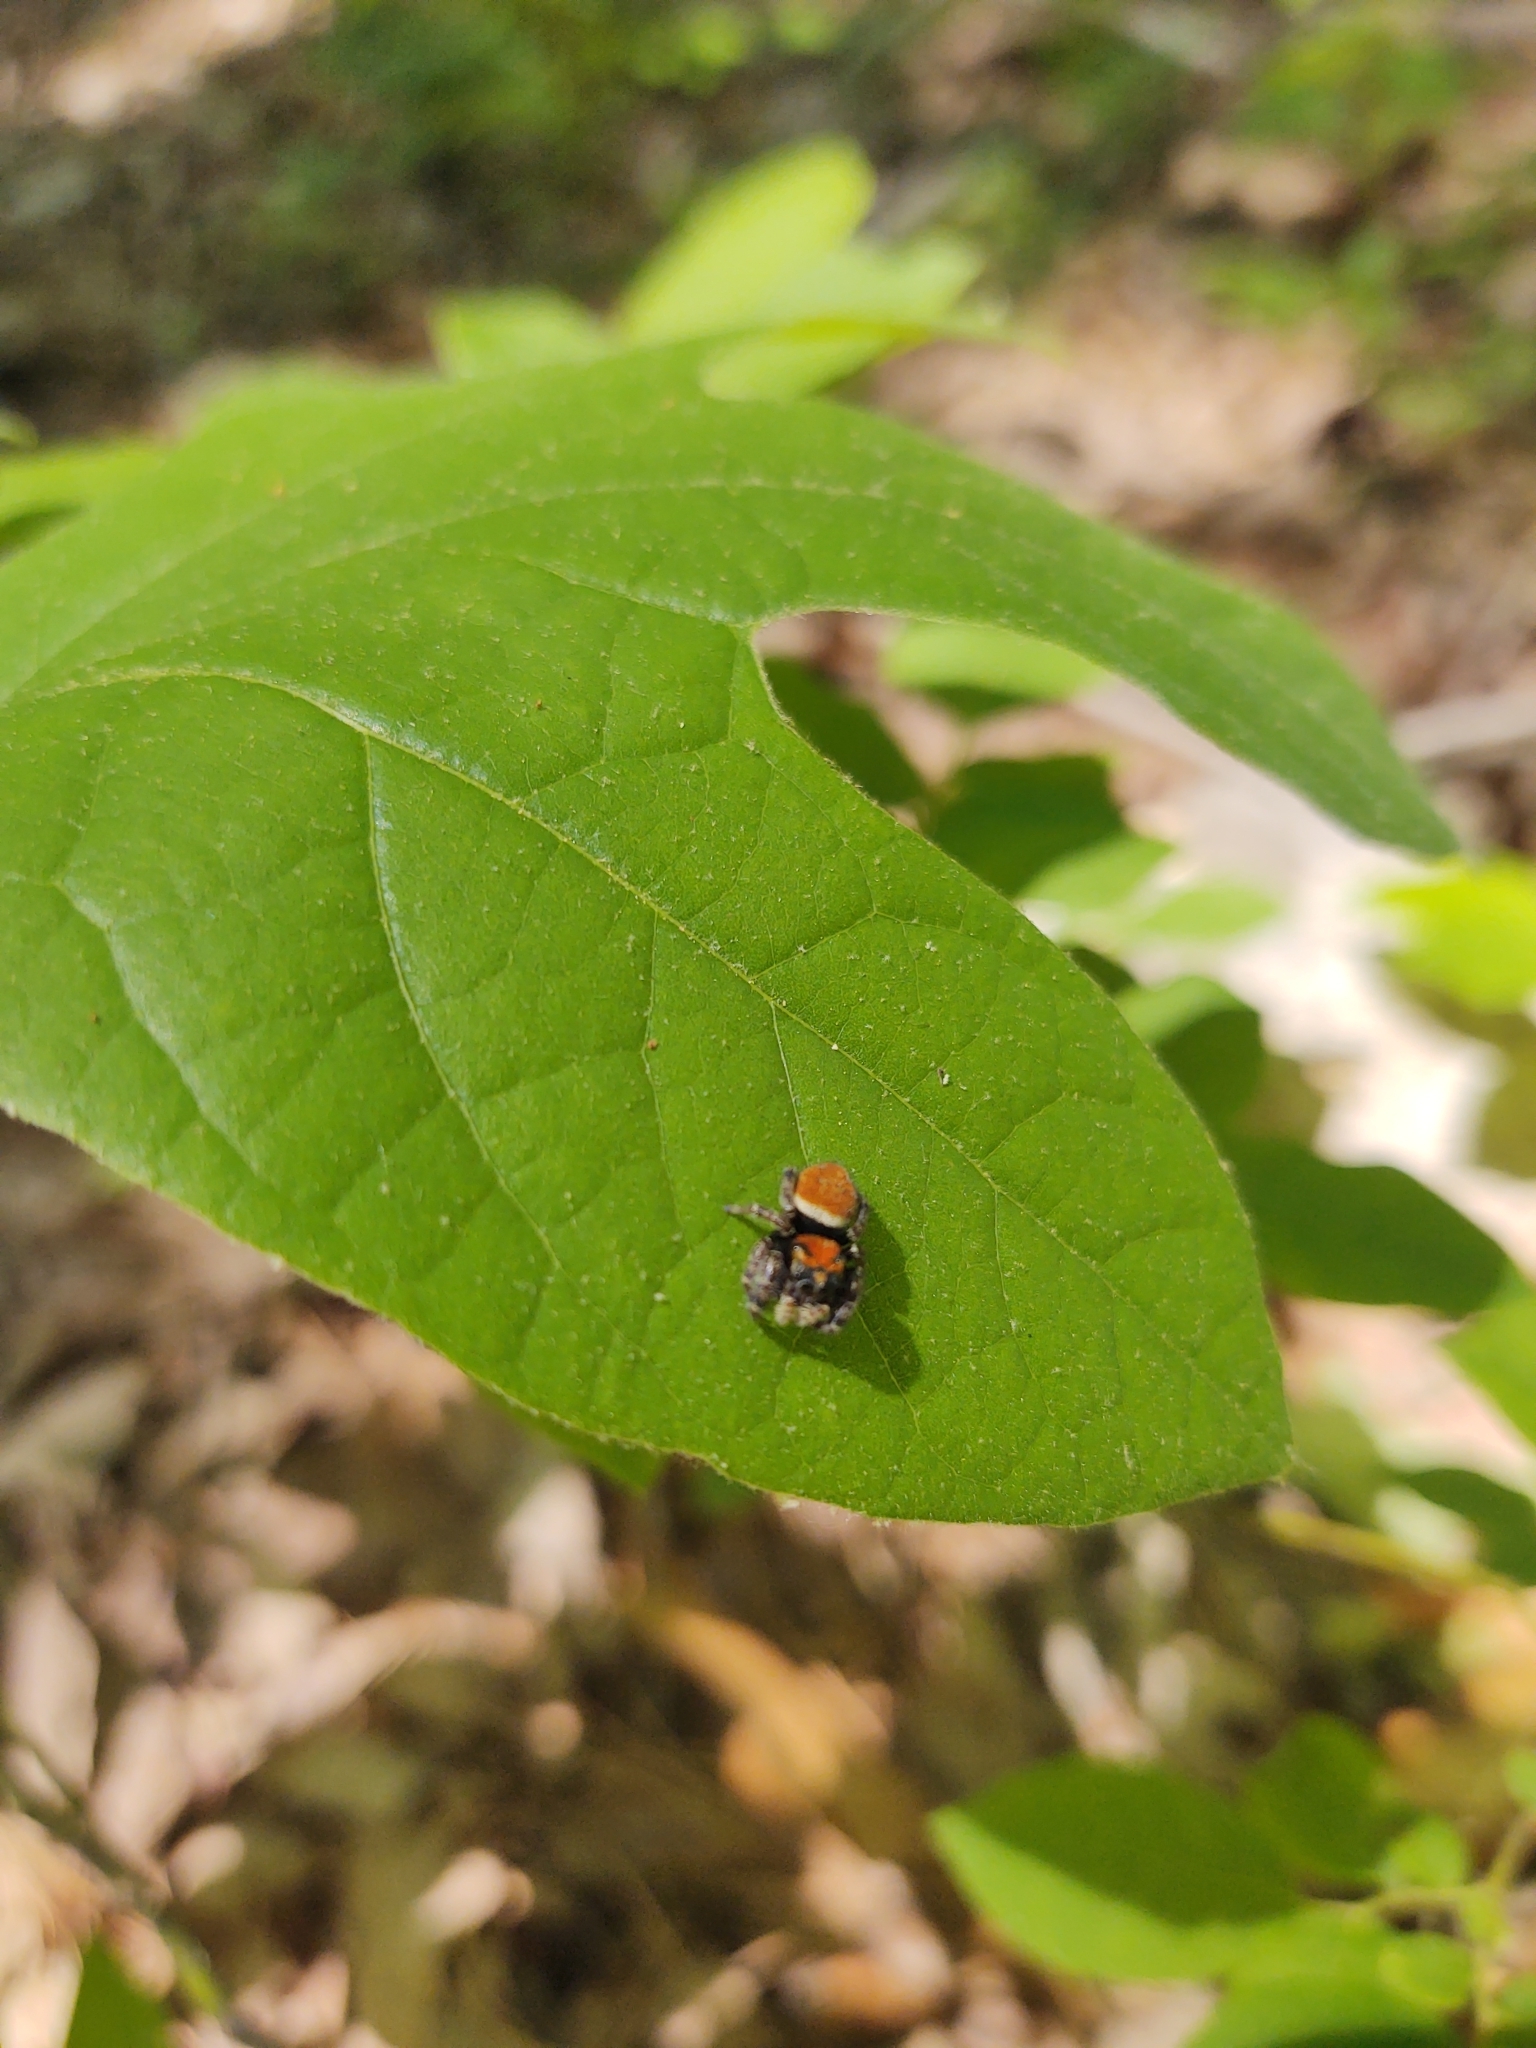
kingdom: Animalia
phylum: Arthropoda
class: Arachnida
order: Araneae
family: Salticidae
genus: Phidippus
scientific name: Phidippus whitmani
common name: Whitman's jumping spider
